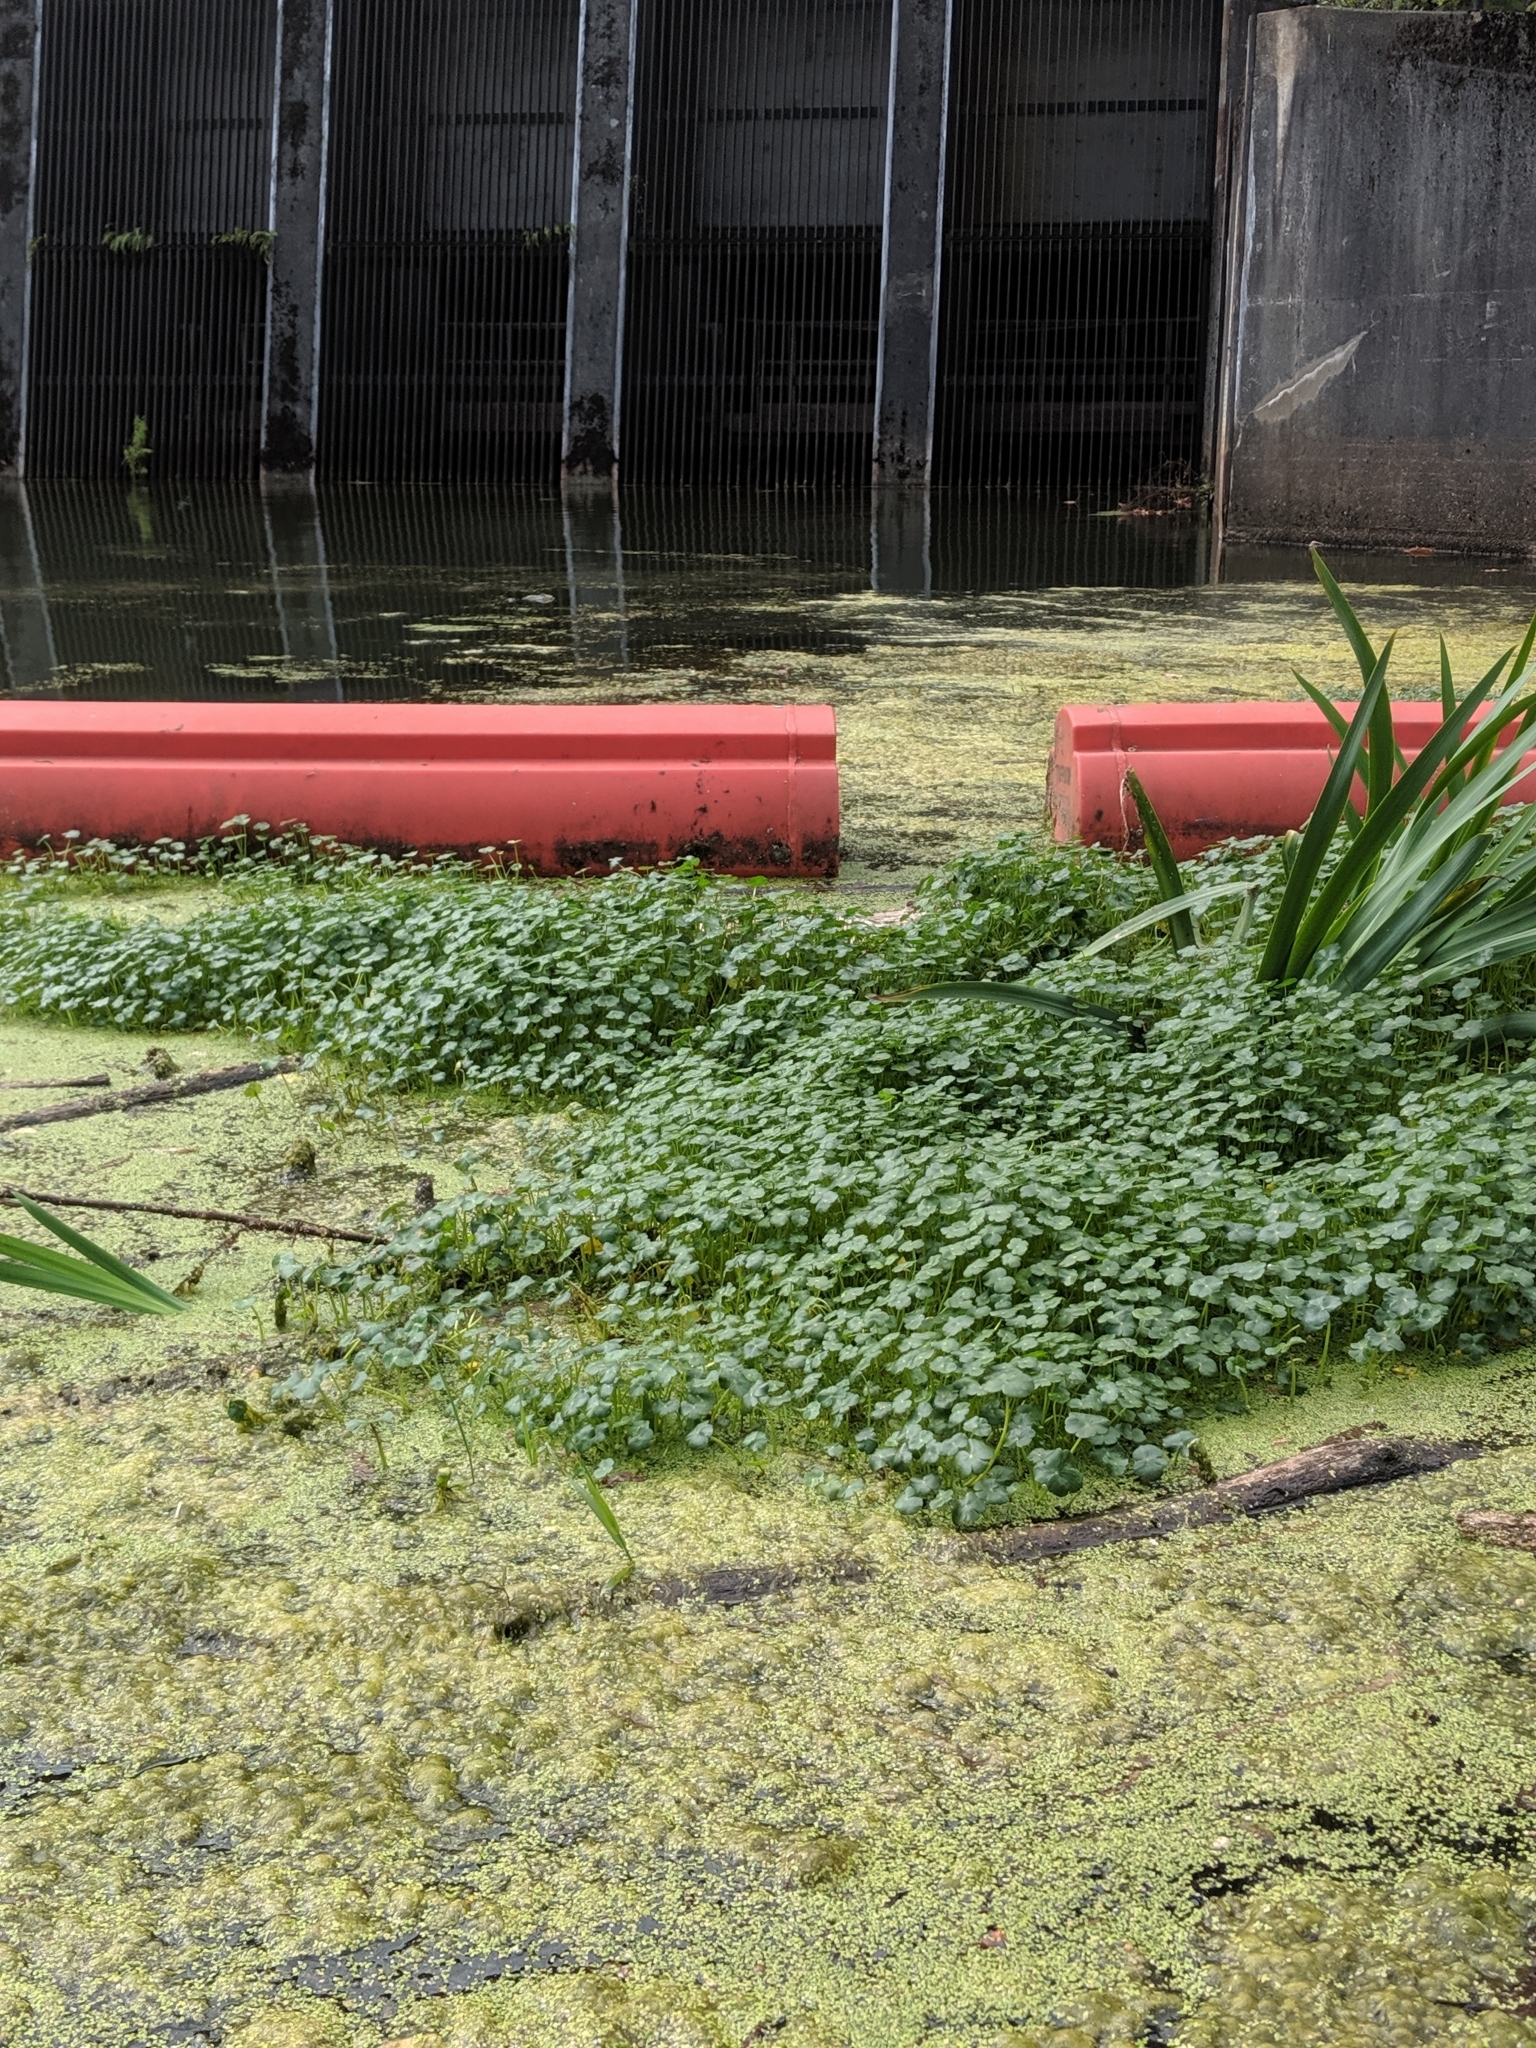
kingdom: Plantae
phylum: Tracheophyta
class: Magnoliopsida
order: Apiales
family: Araliaceae
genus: Hydrocotyle
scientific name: Hydrocotyle ranunculoides
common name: Floating pennywort
